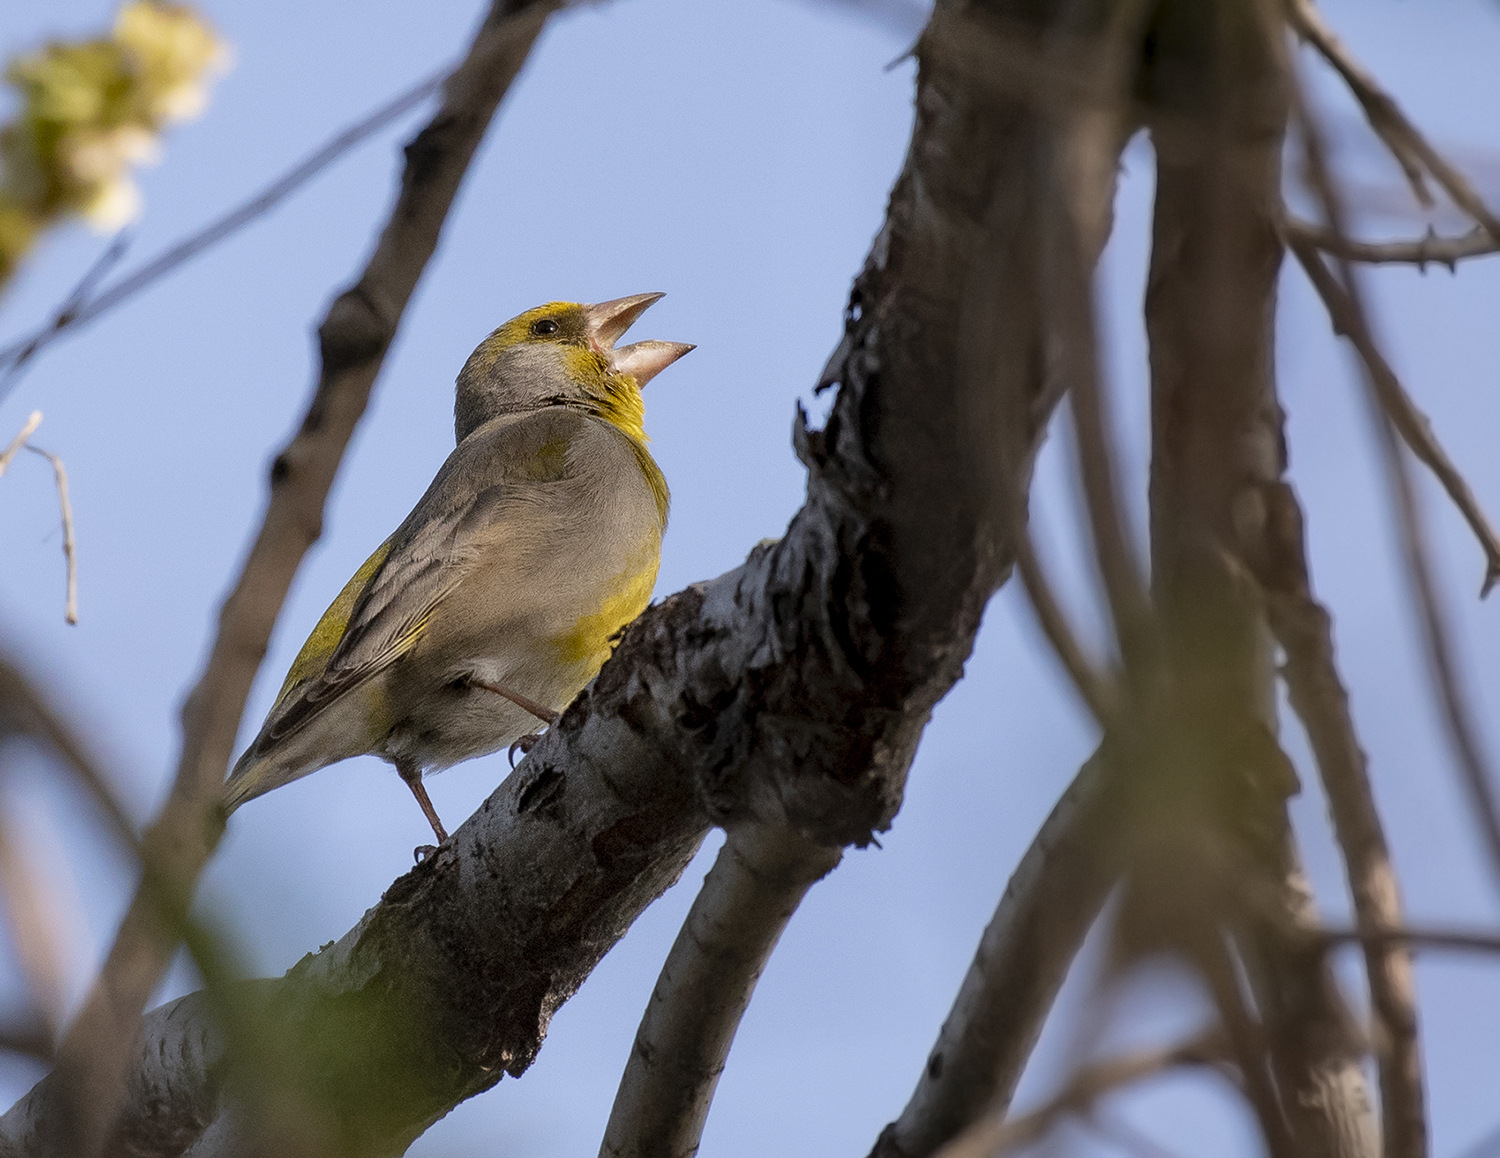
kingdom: Plantae
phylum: Tracheophyta
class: Liliopsida
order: Poales
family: Poaceae
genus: Chloris
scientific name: Chloris chloris
